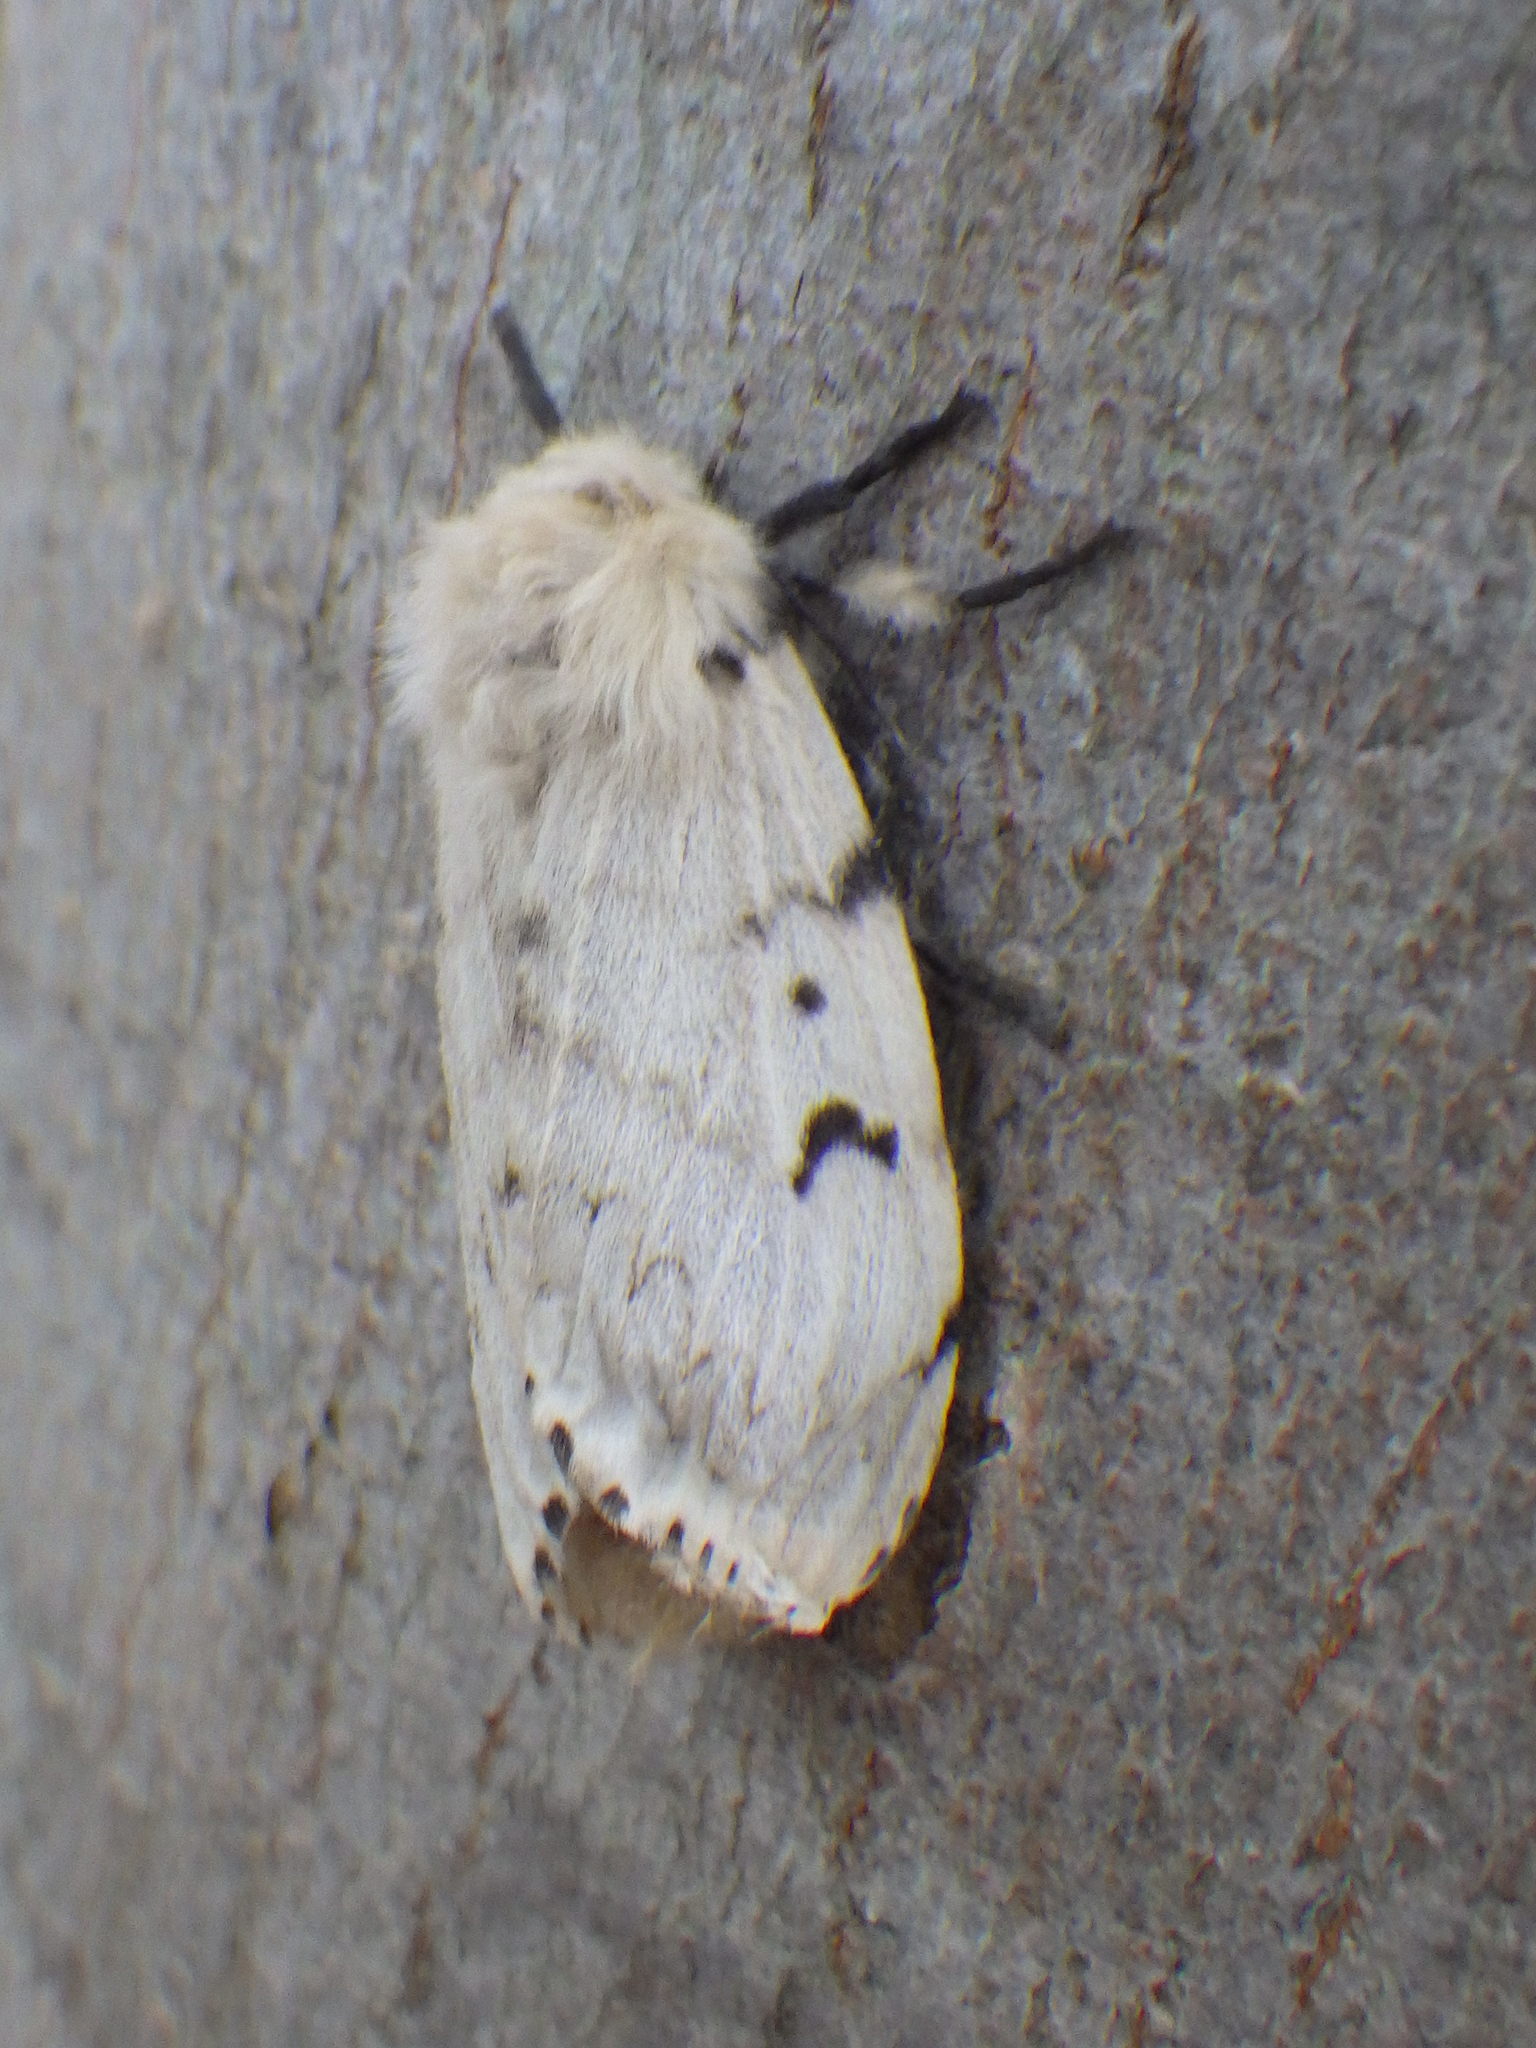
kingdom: Animalia
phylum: Arthropoda
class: Insecta
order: Lepidoptera
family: Erebidae
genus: Lymantria
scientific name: Lymantria dispar
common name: Gypsy moth
